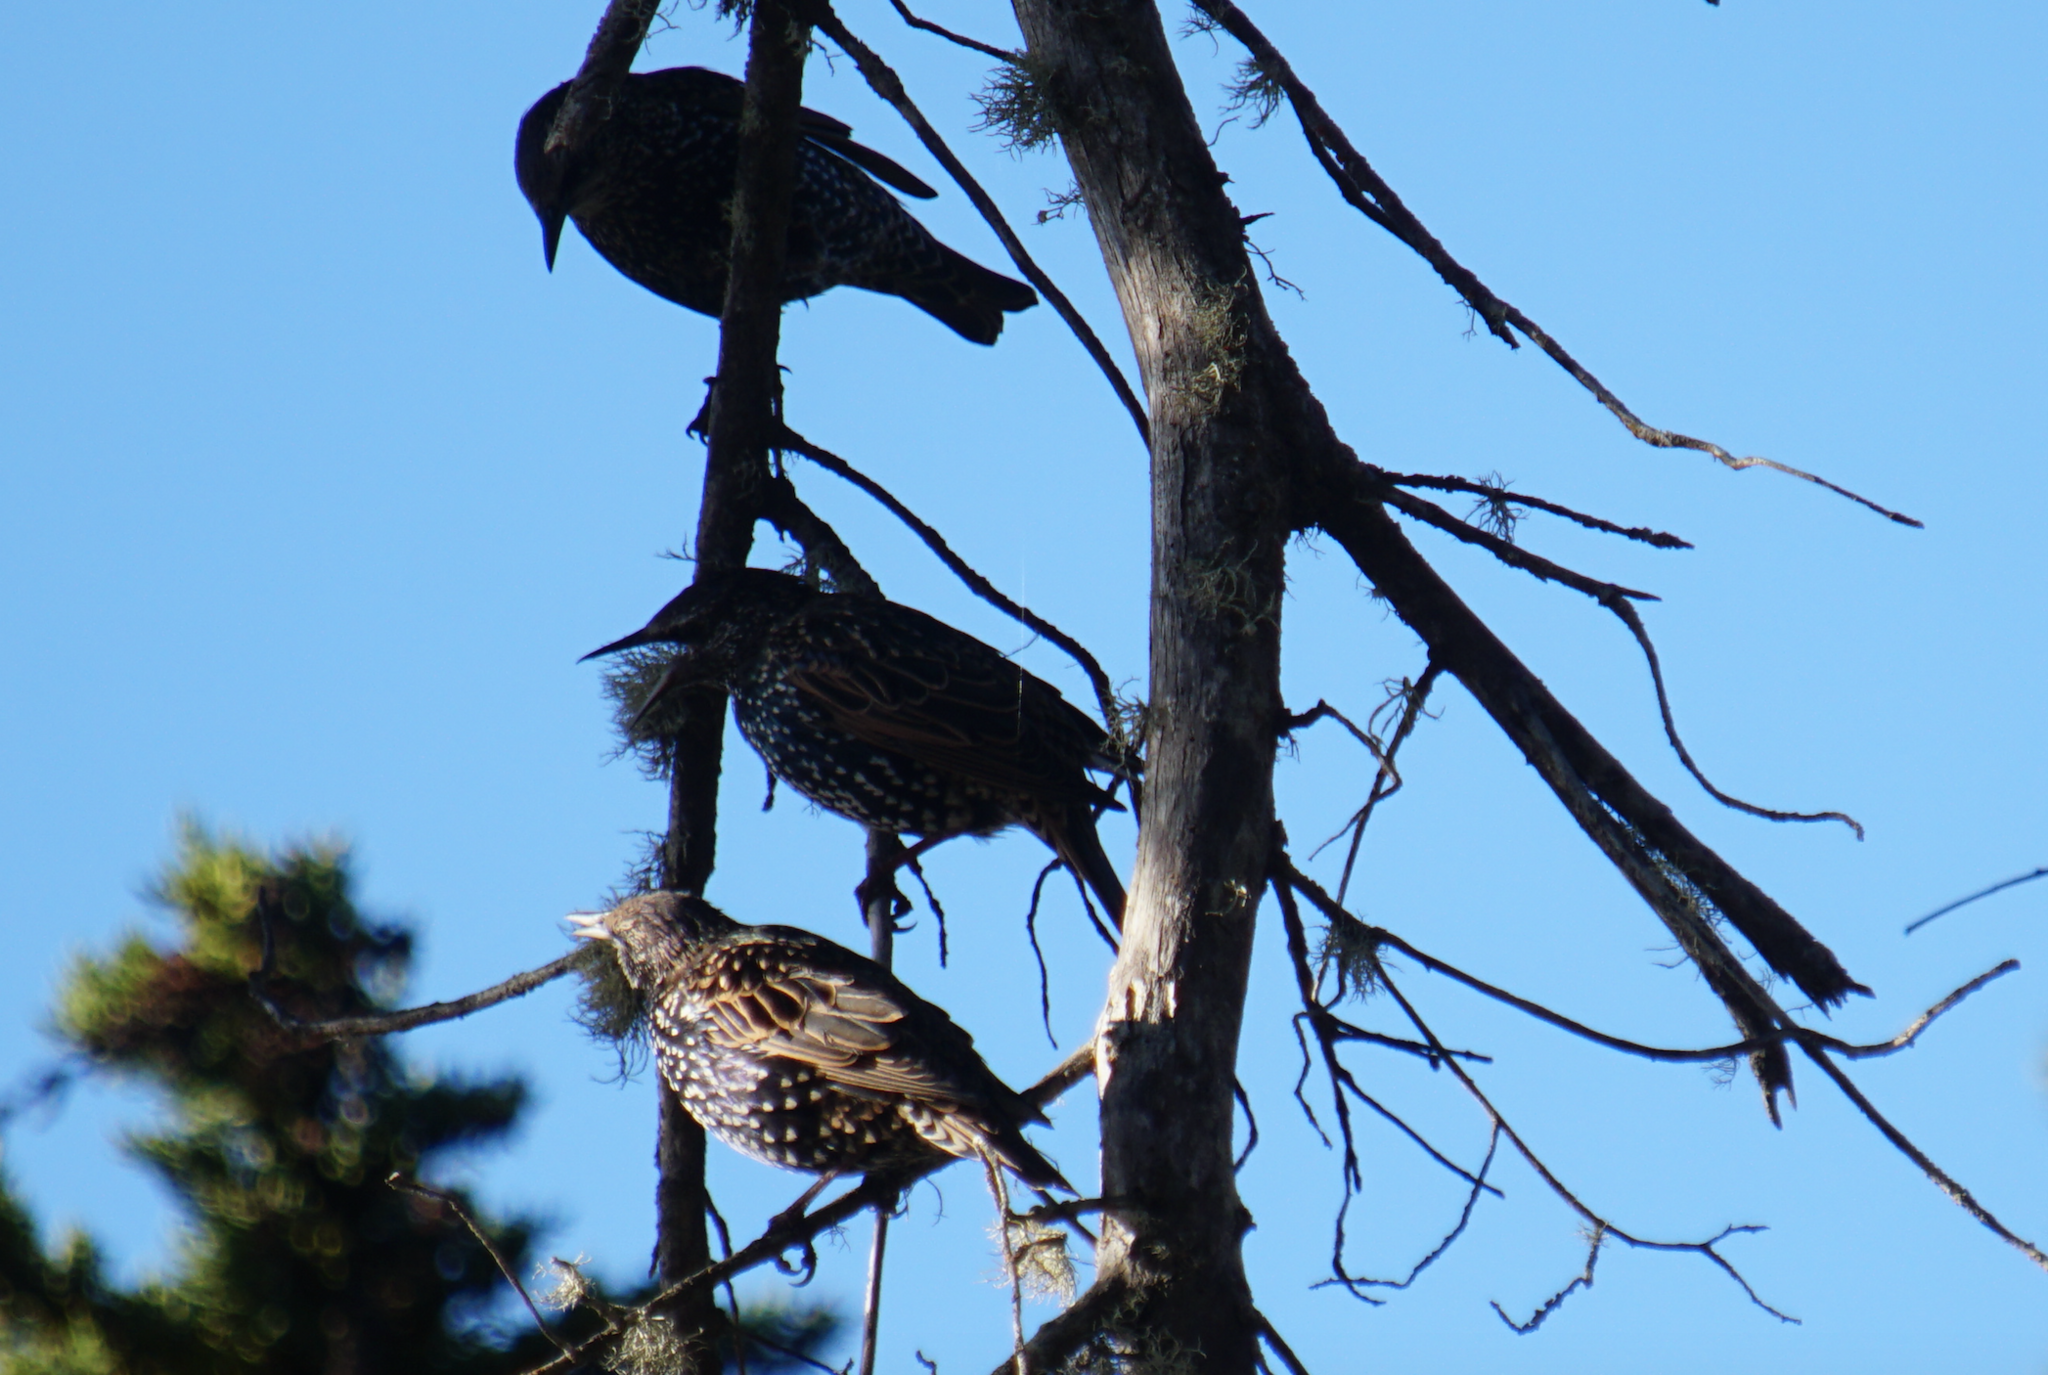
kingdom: Animalia
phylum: Chordata
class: Aves
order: Passeriformes
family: Sturnidae
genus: Sturnus
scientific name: Sturnus vulgaris
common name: Common starling
